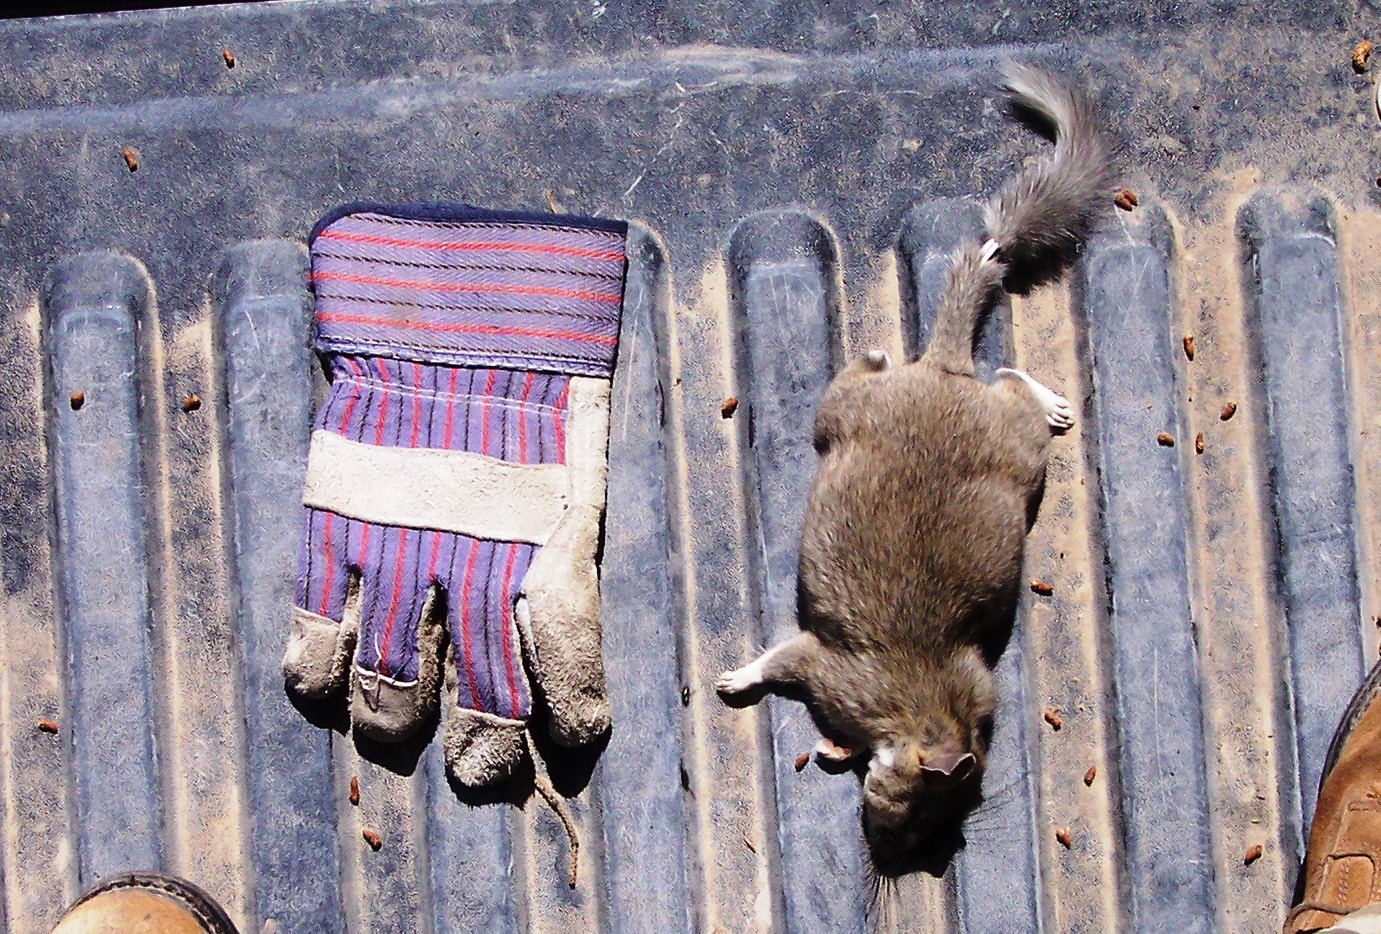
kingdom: Animalia
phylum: Chordata
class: Mammalia
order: Rodentia
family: Cricetidae
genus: Neotoma
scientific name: Neotoma cinerea
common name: Bushy-tailed woodrat
